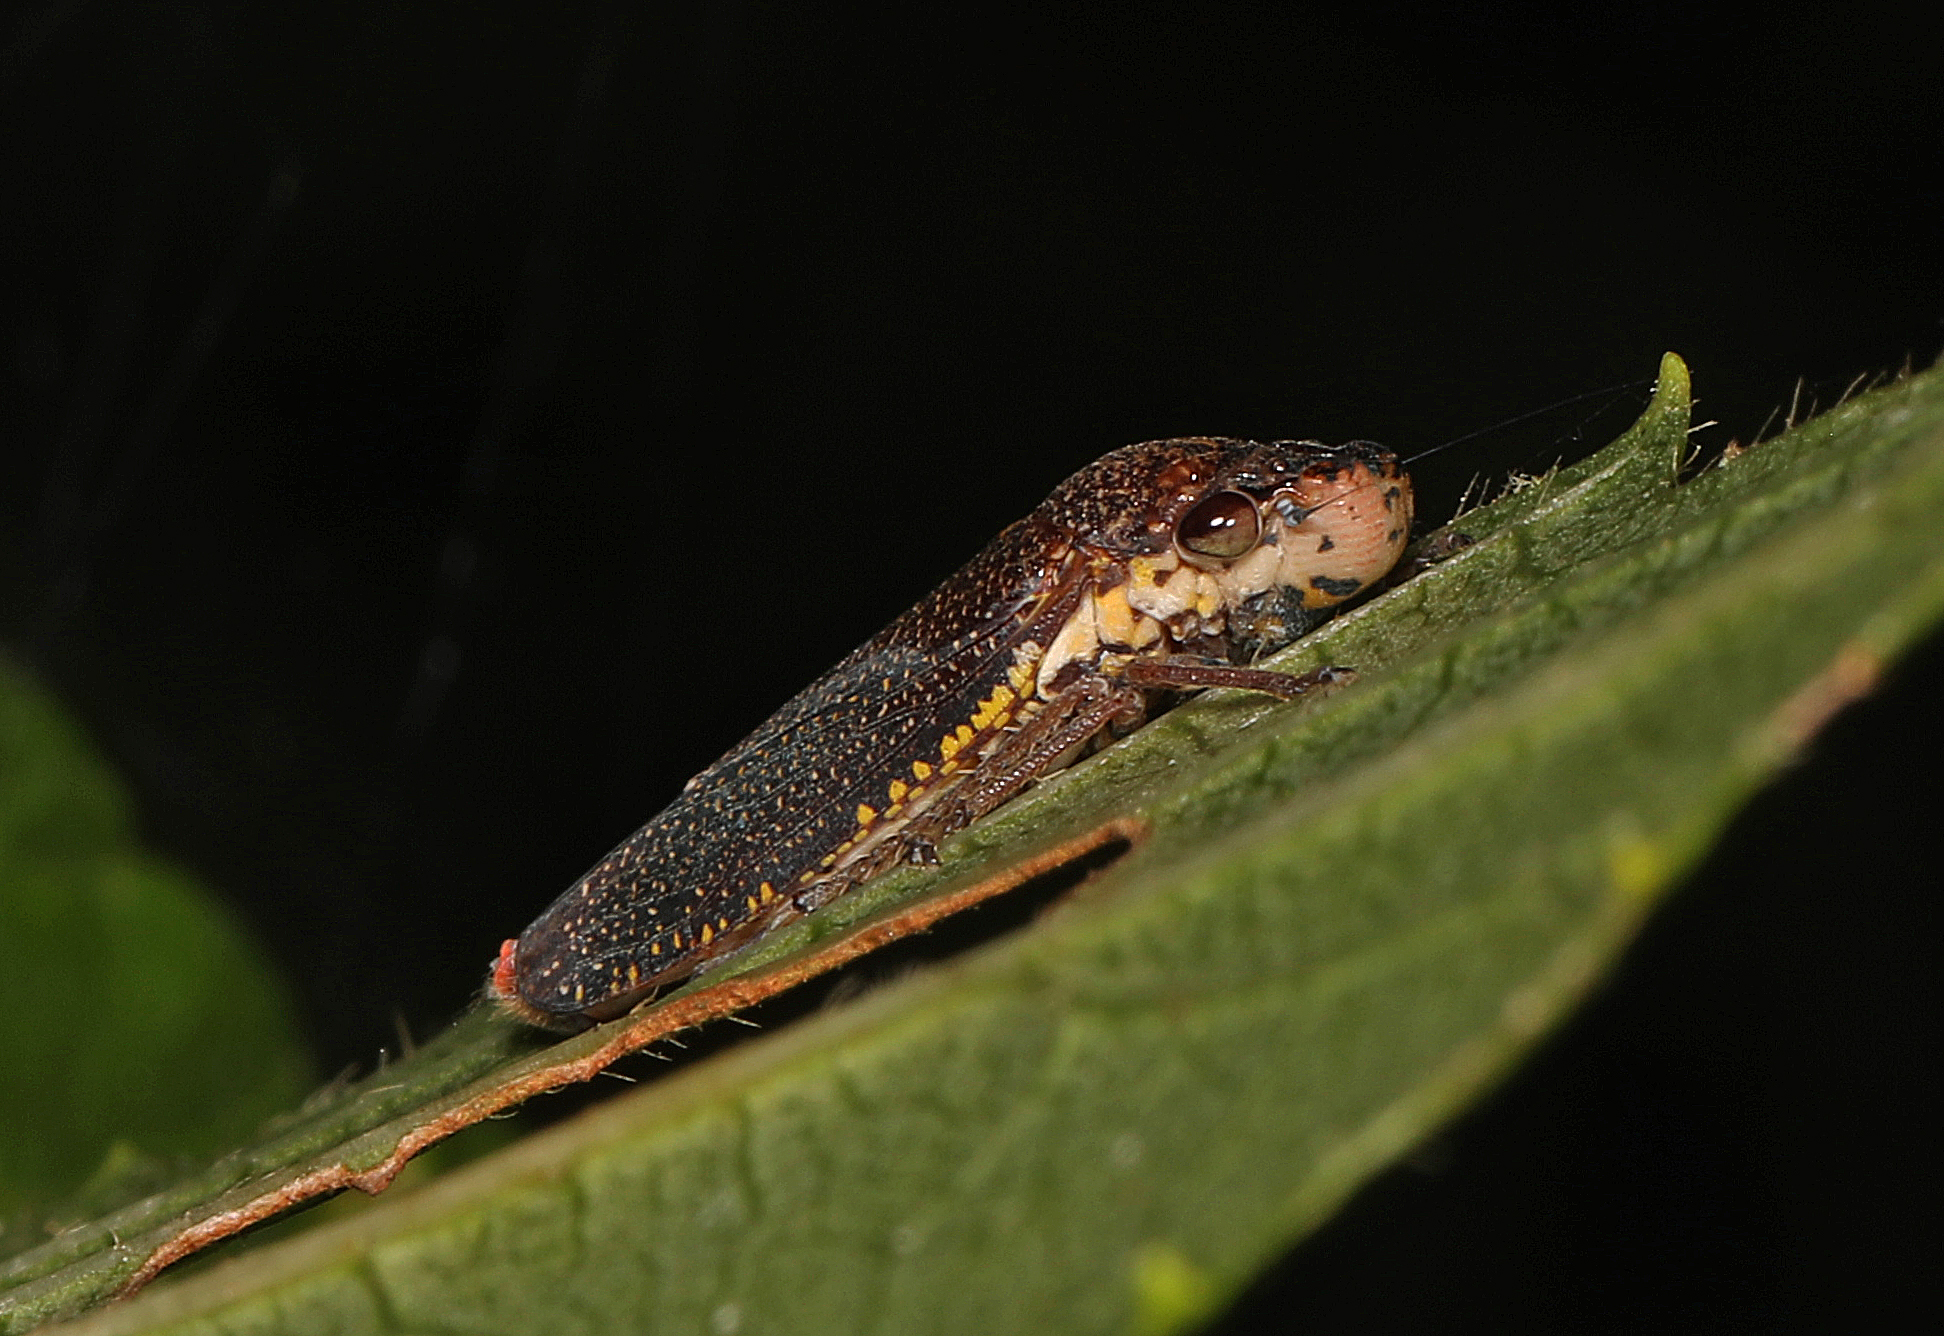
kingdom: Animalia
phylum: Arthropoda
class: Insecta
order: Hemiptera
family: Cicadellidae
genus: Paraulacizes
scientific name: Paraulacizes irrorata
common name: Speckled sharpshooter
